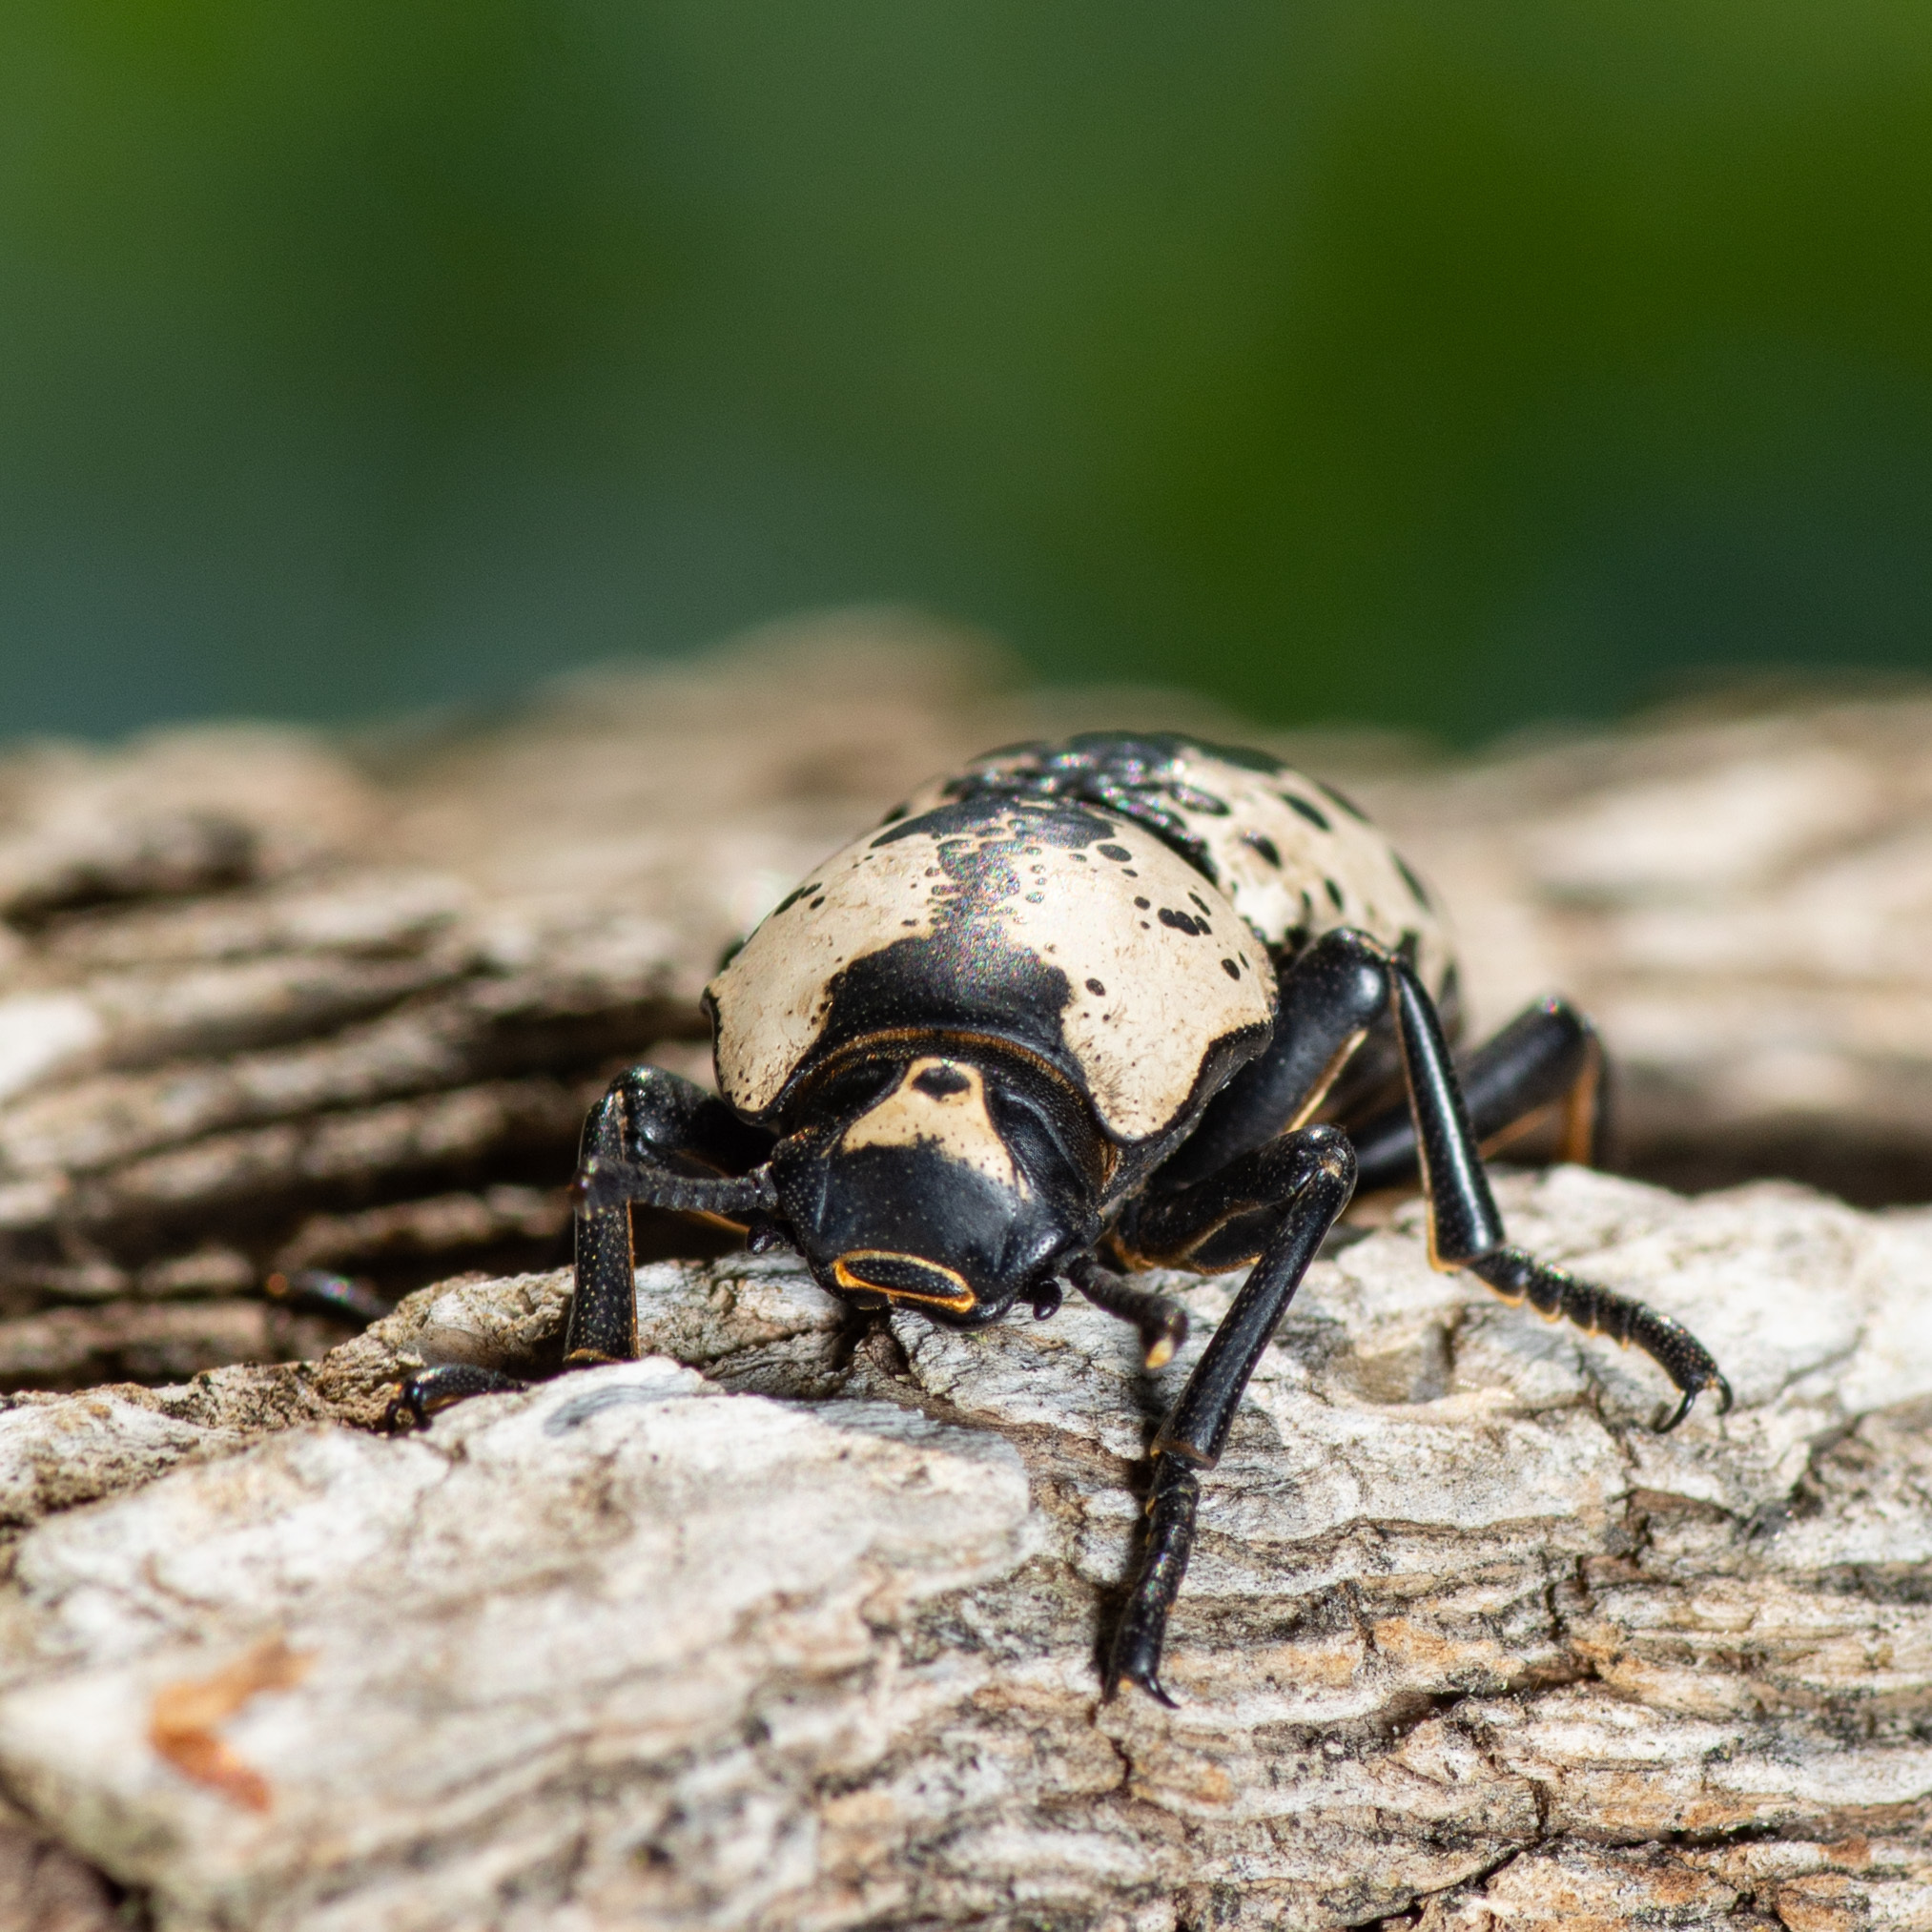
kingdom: Animalia
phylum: Arthropoda
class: Insecta
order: Coleoptera
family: Zopheridae
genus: Zopherus
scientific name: Zopherus nodulosus
